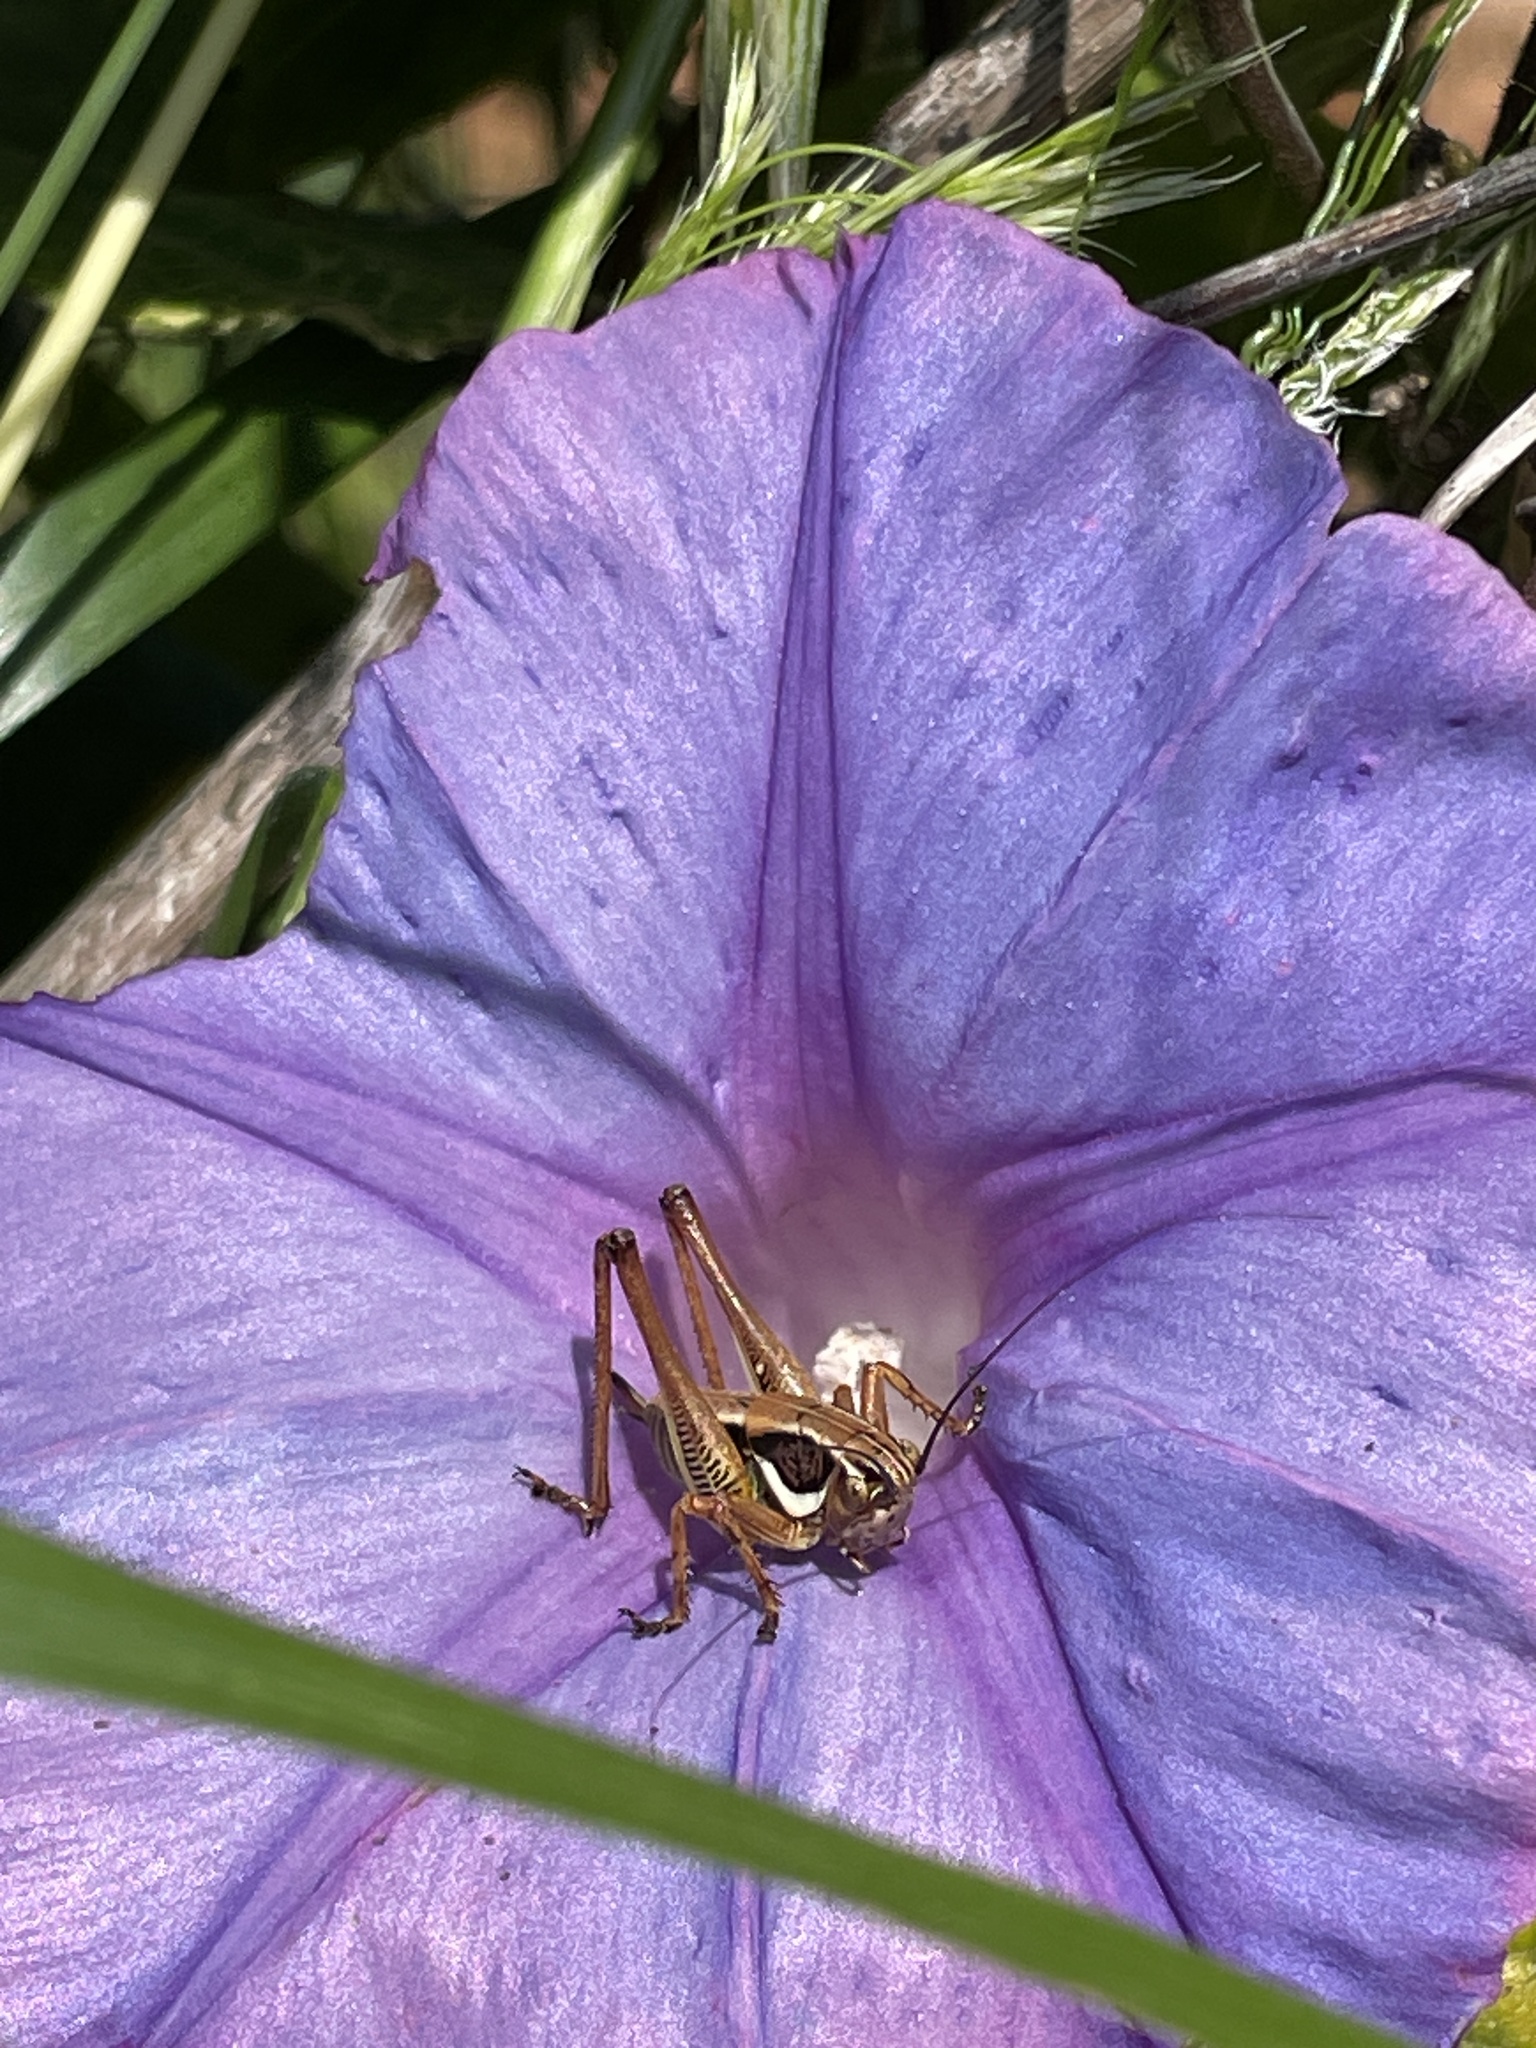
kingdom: Animalia
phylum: Arthropoda
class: Insecta
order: Orthoptera
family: Tettigoniidae
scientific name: Tettigoniidae
